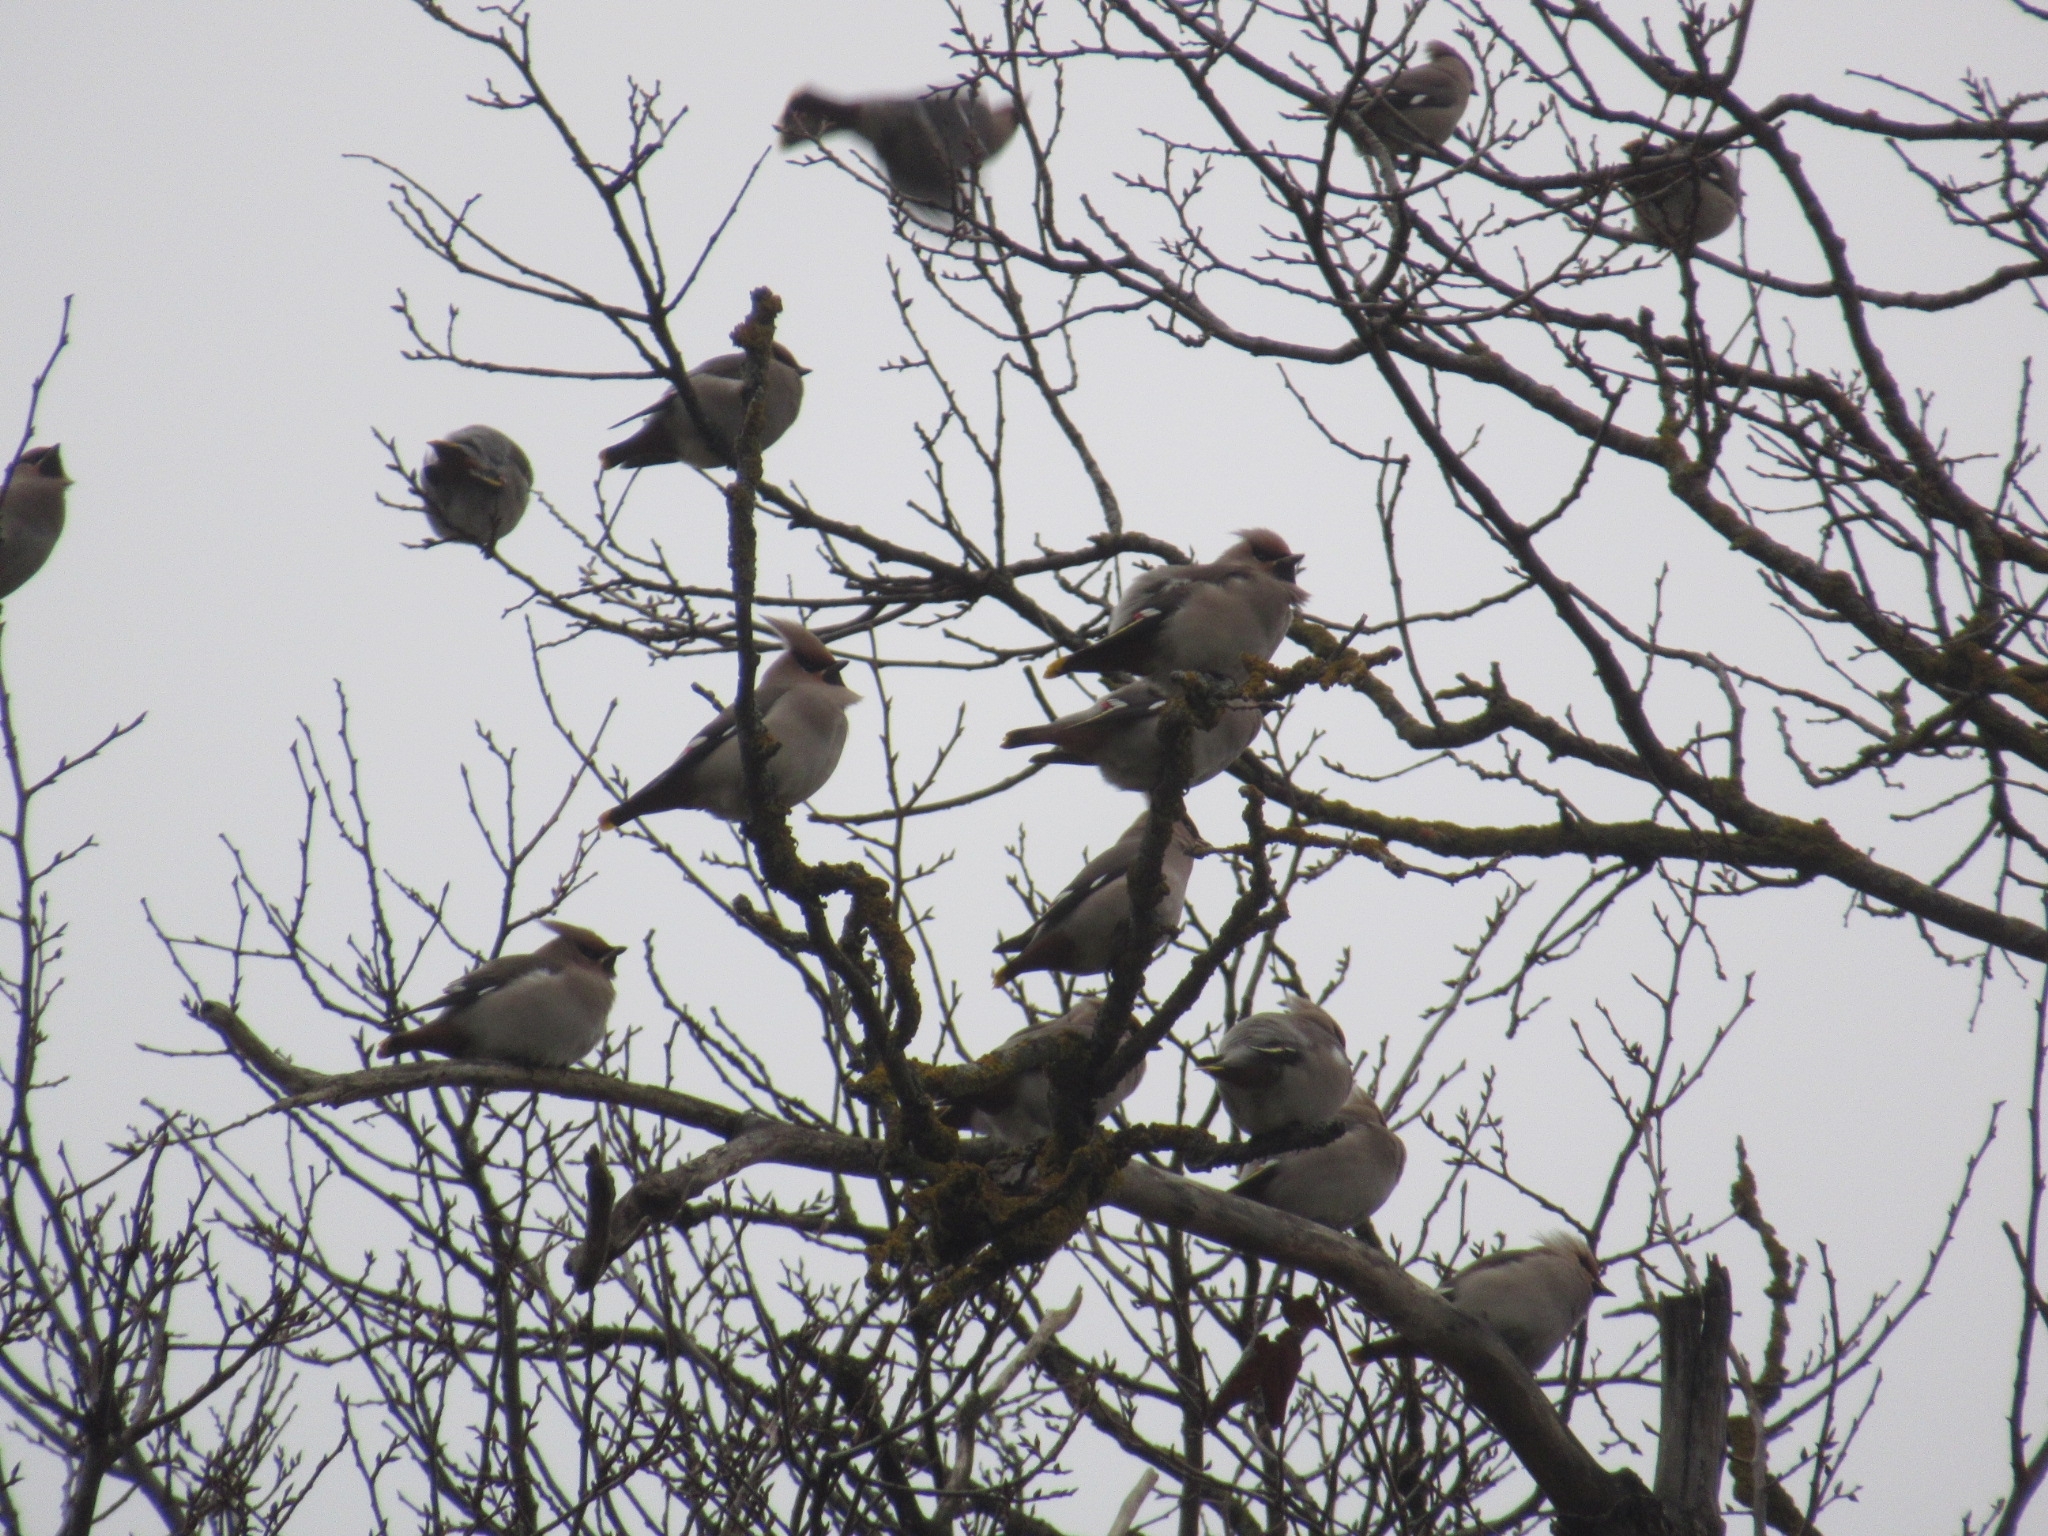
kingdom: Animalia
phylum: Chordata
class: Aves
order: Passeriformes
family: Bombycillidae
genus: Bombycilla
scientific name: Bombycilla garrulus
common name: Bohemian waxwing
